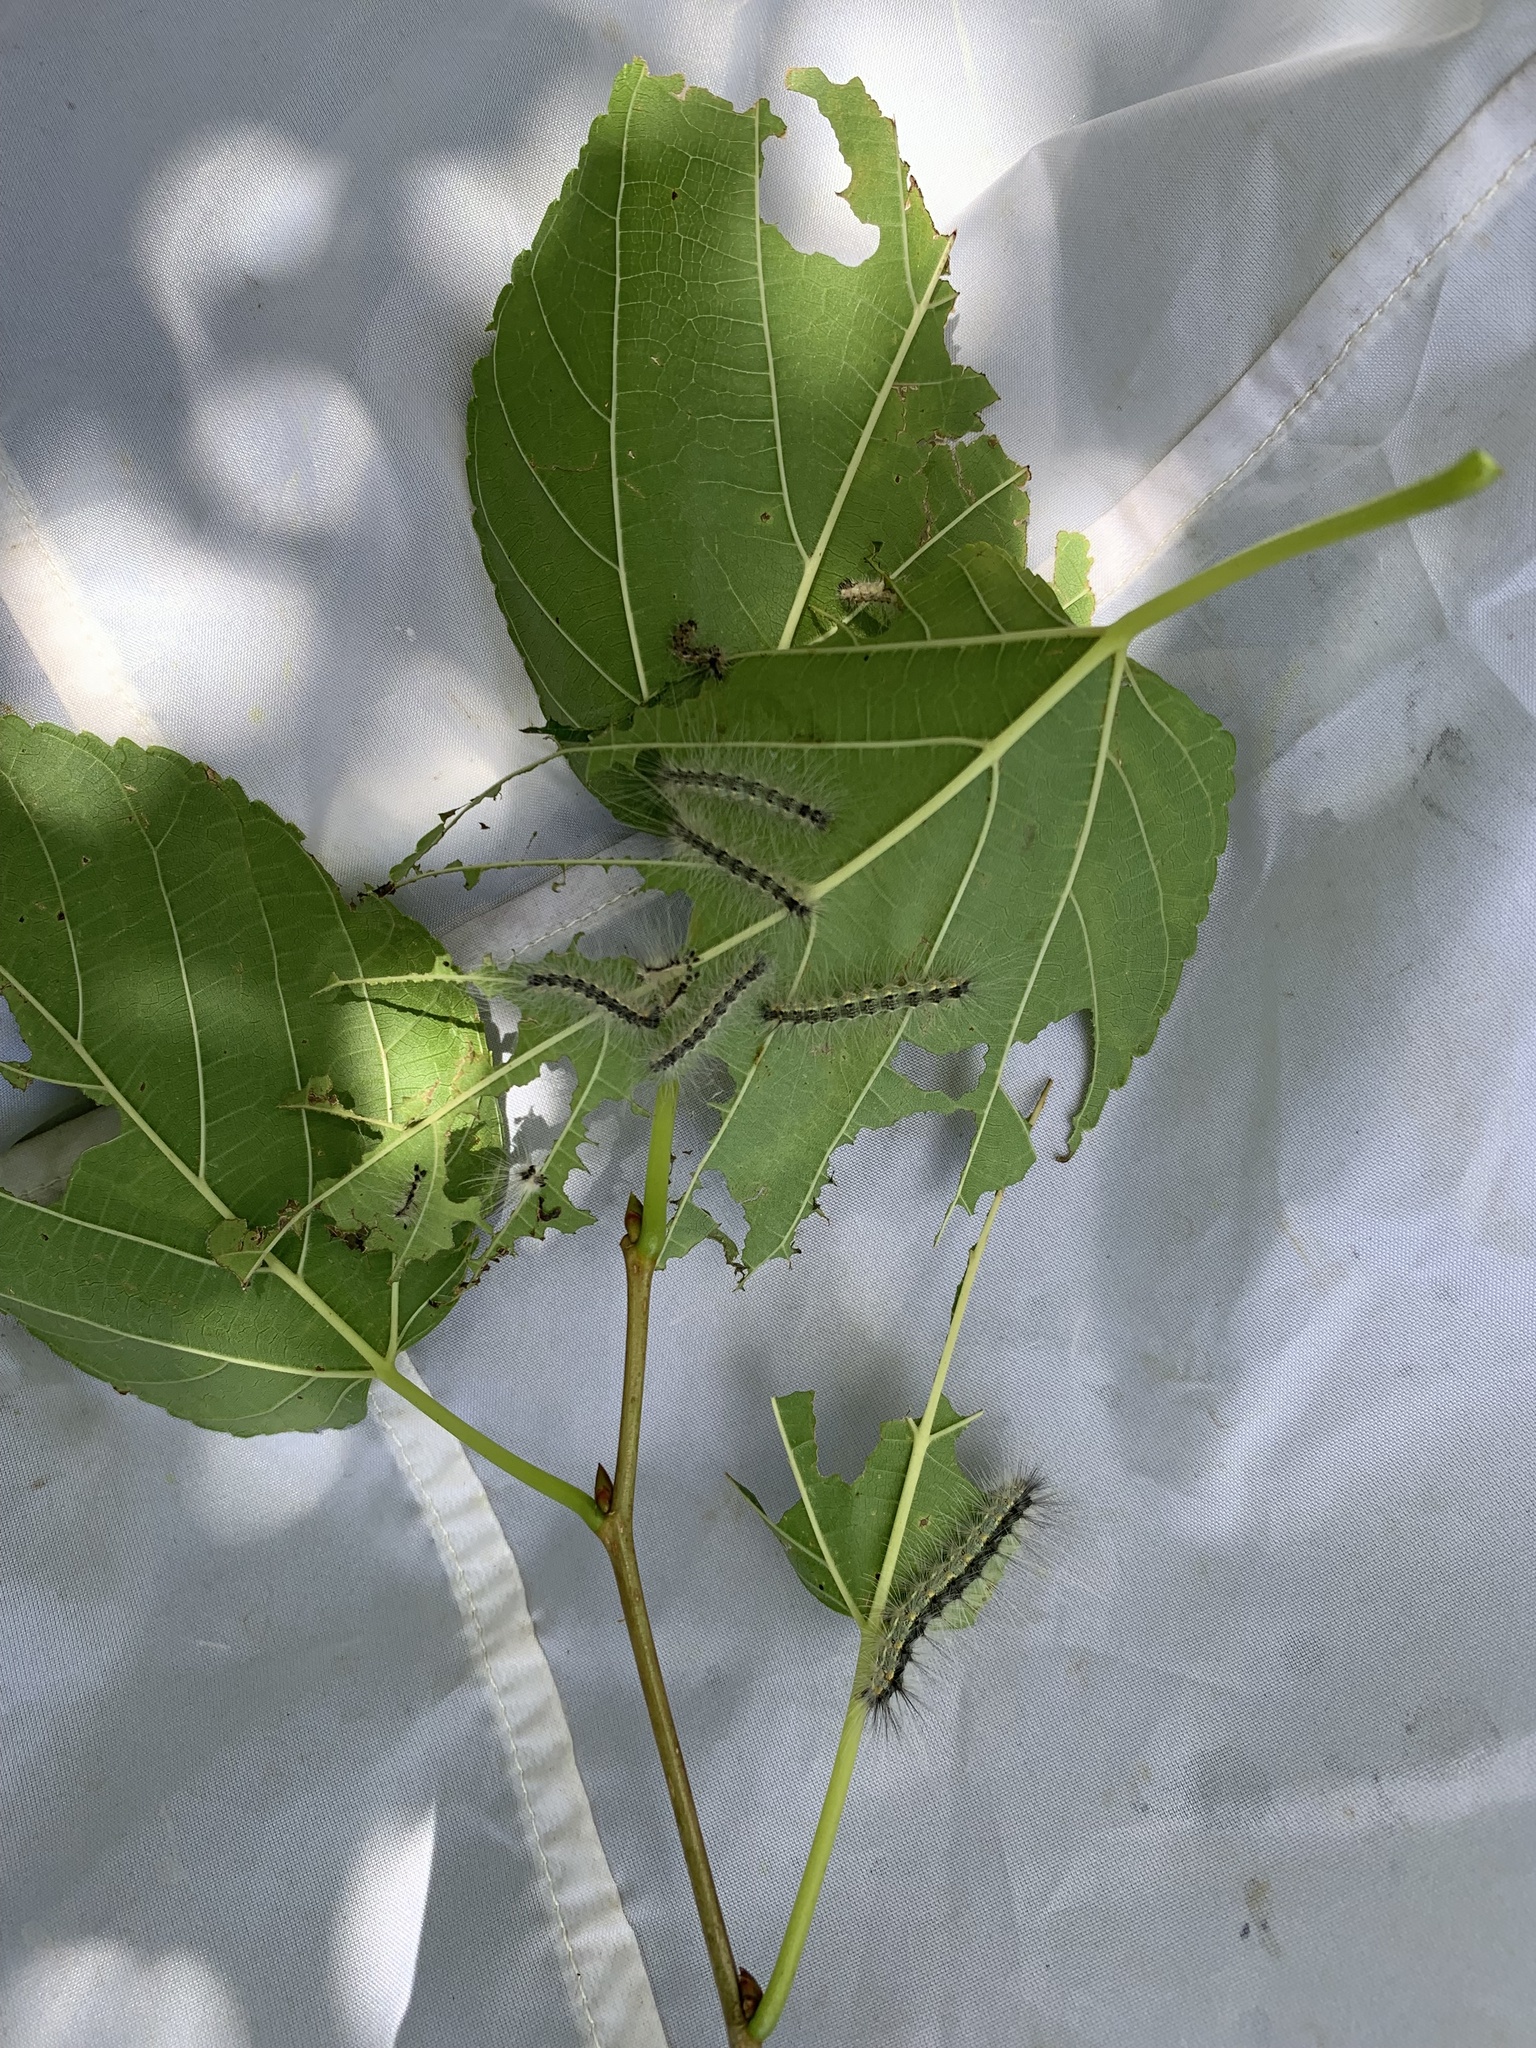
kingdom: Animalia
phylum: Arthropoda
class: Insecta
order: Lepidoptera
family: Erebidae
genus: Hyphantria
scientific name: Hyphantria cunea
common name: American white moth
